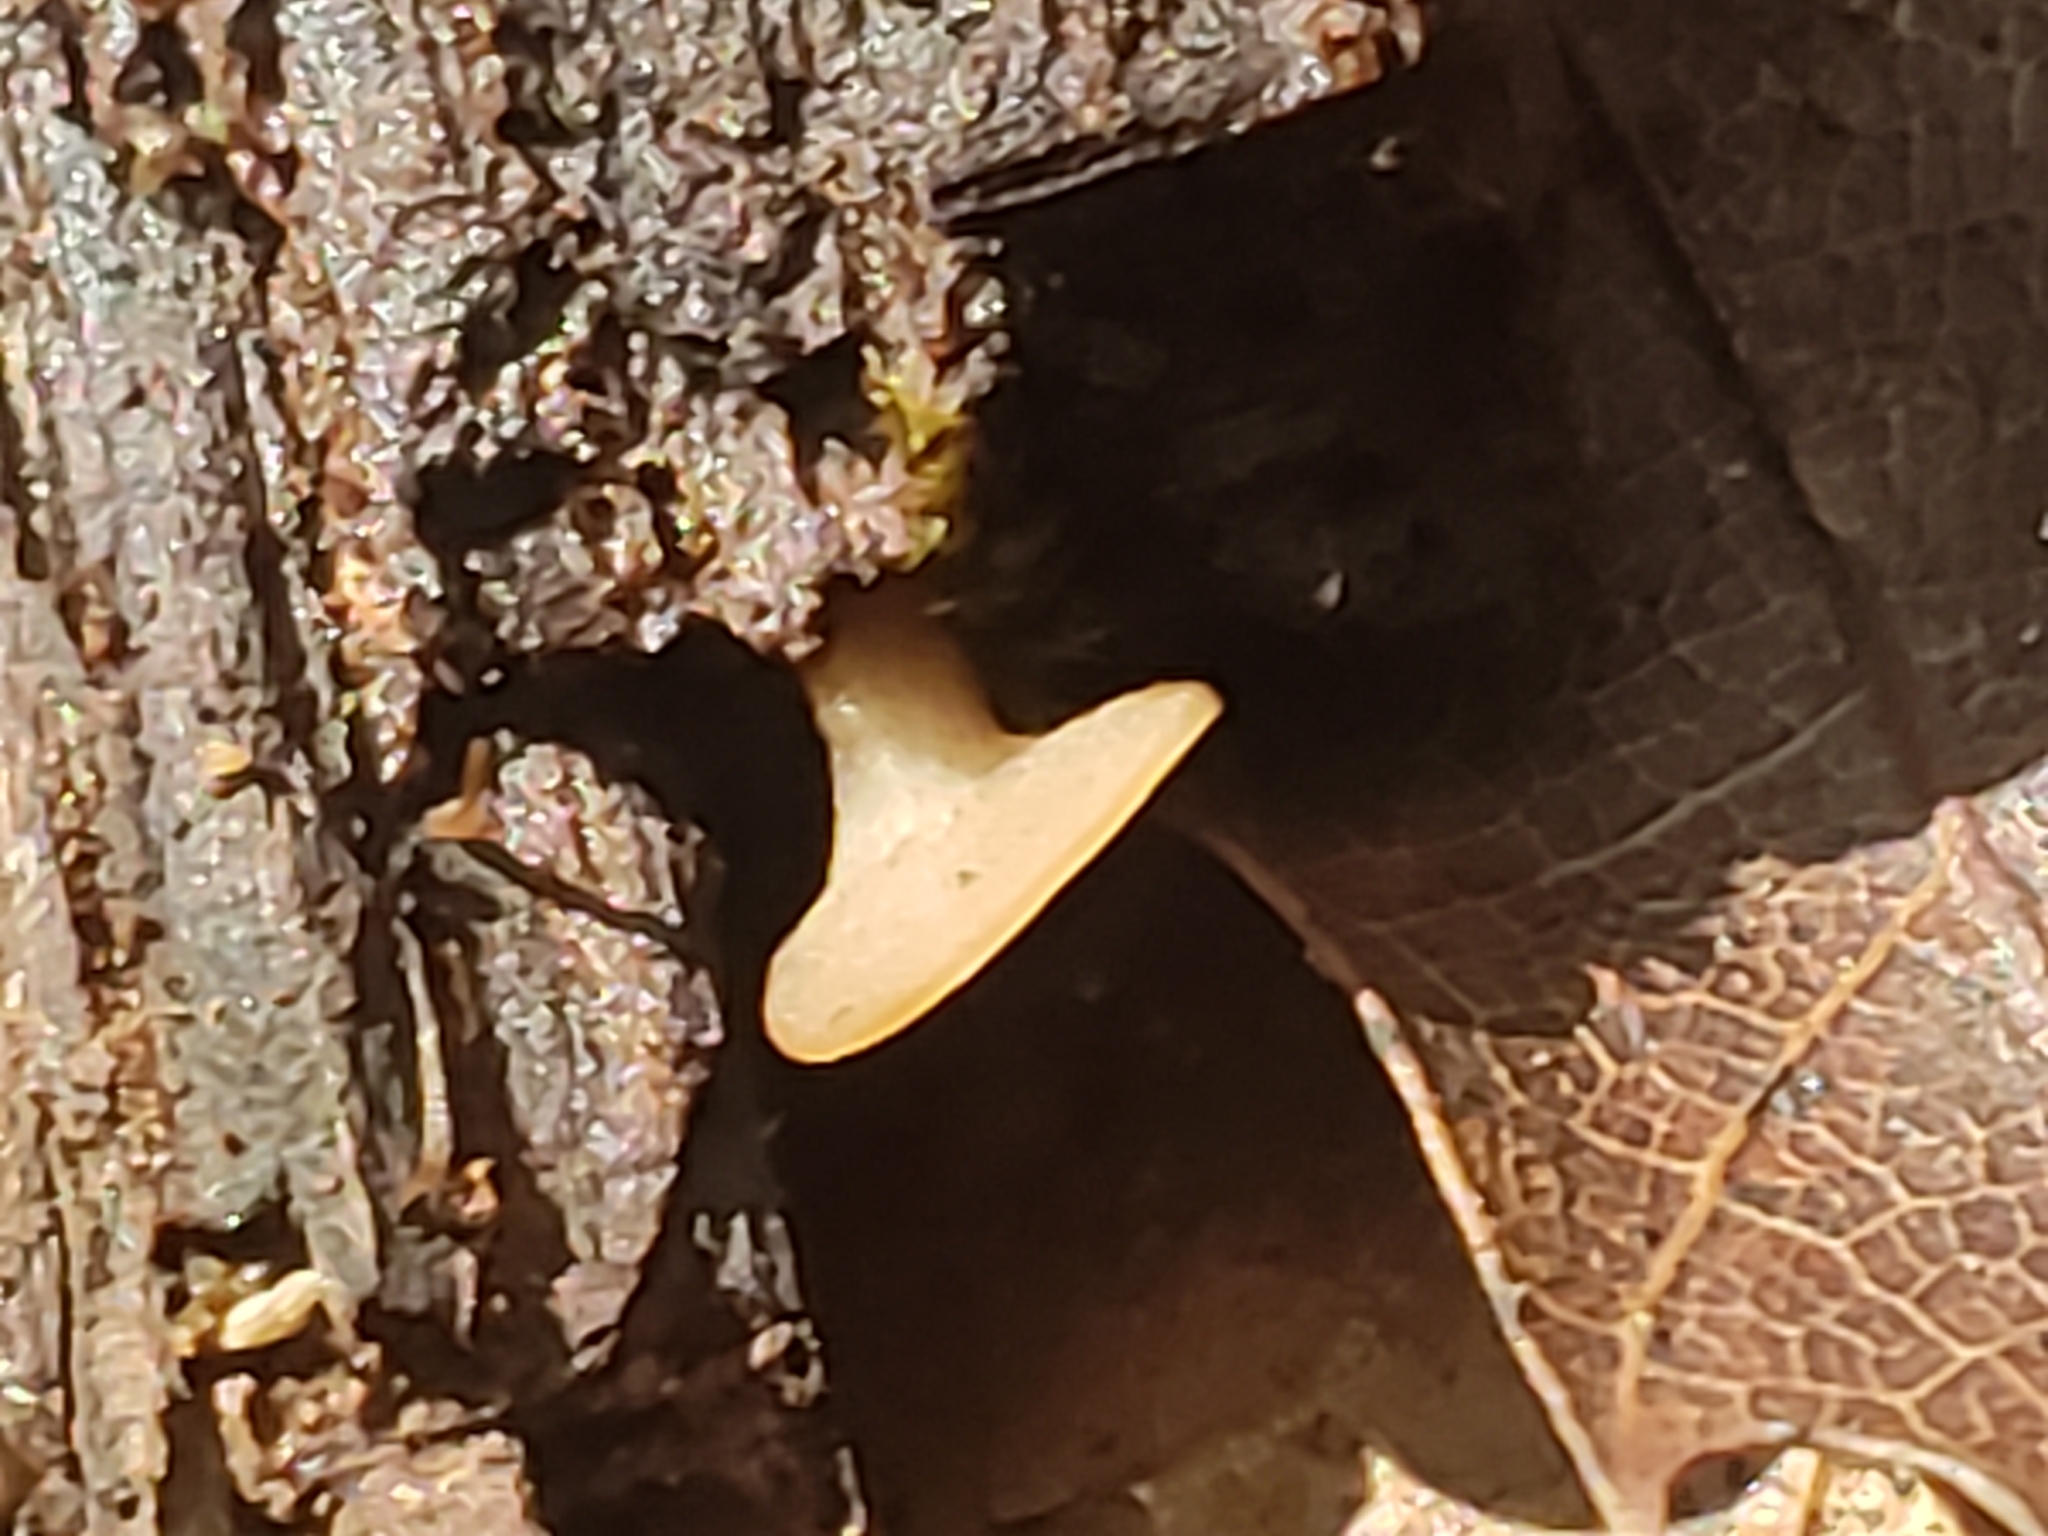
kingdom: Fungi
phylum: Ascomycota
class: Leotiomycetes
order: Helotiales
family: Helotiaceae
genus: Tatraea
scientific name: Tatraea macrospora
